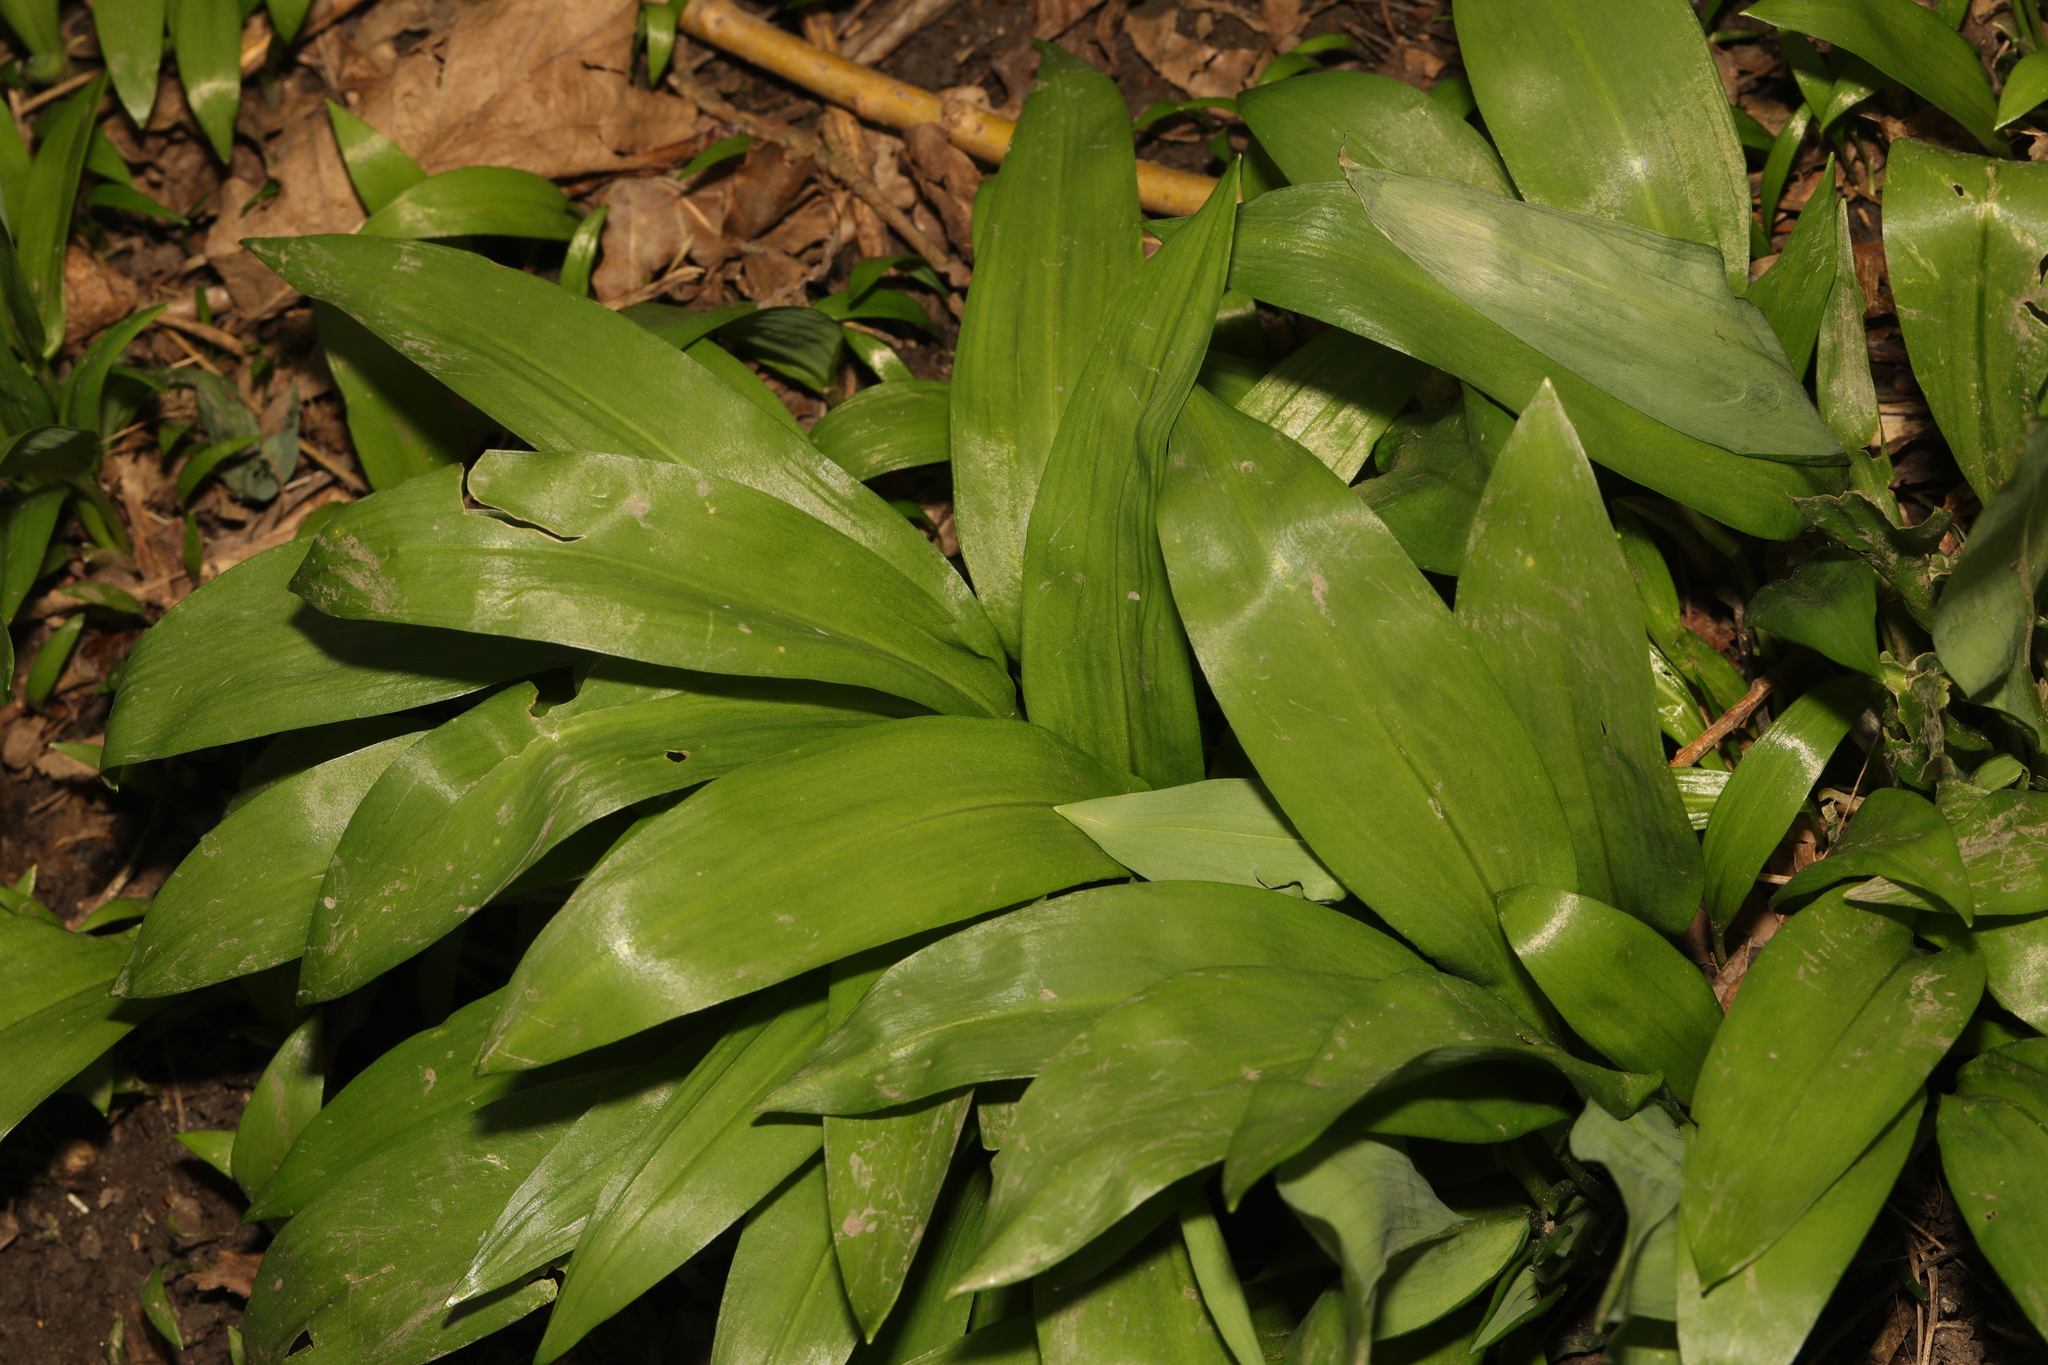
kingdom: Plantae
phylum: Tracheophyta
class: Liliopsida
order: Asparagales
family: Amaryllidaceae
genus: Allium
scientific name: Allium ursinum
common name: Ramsons
